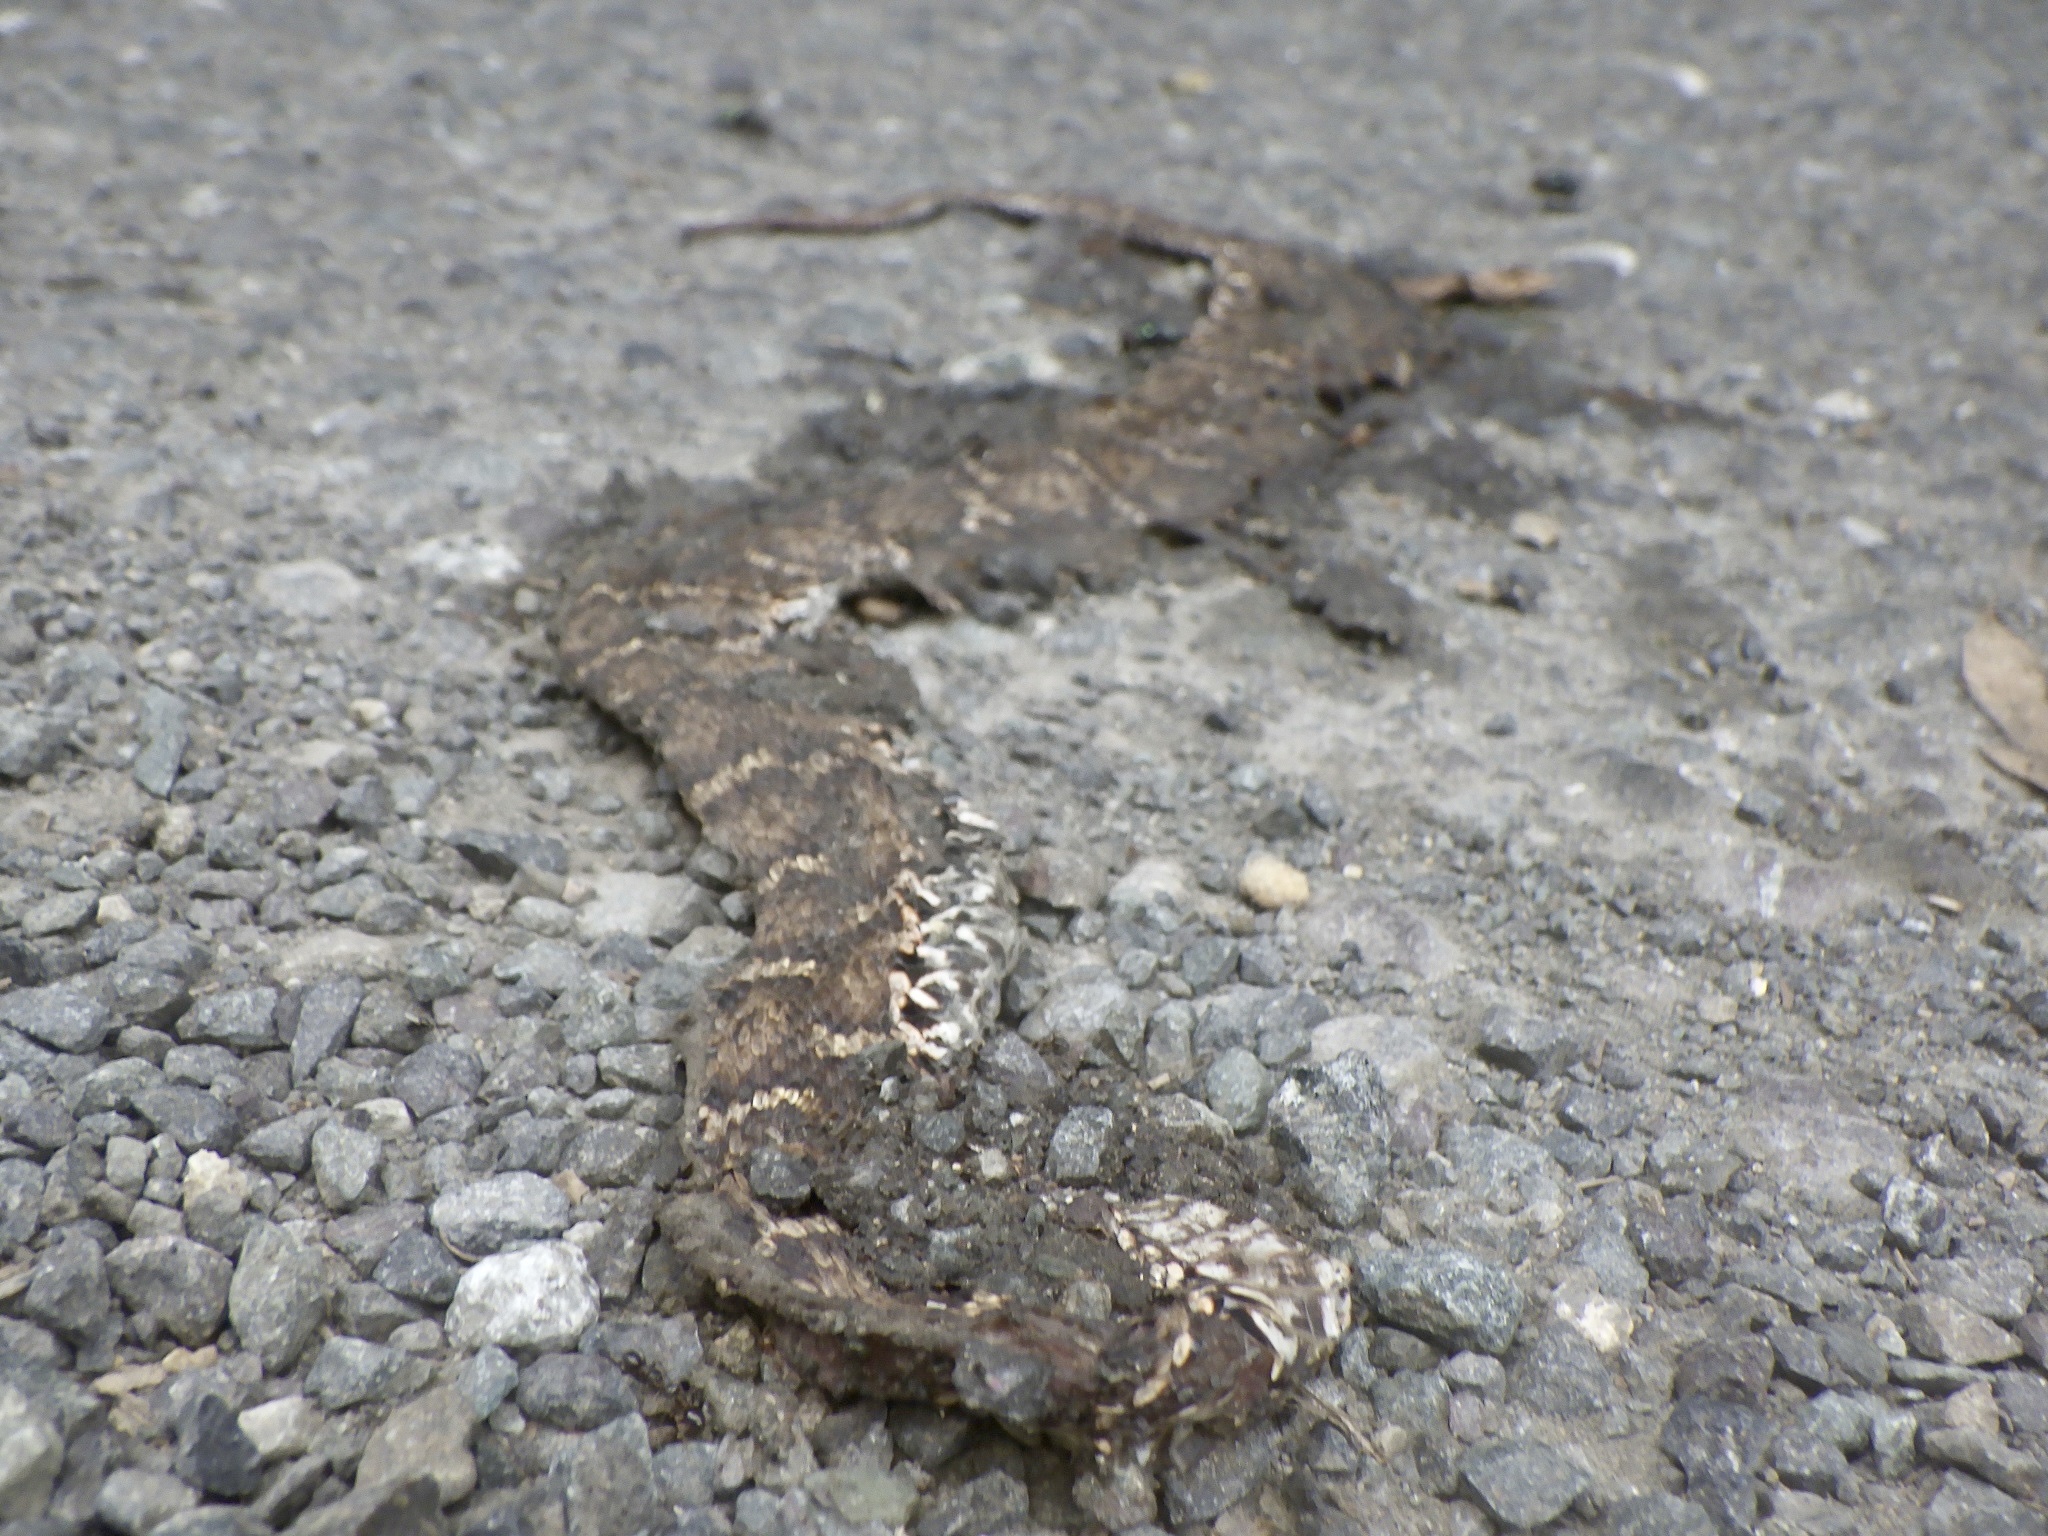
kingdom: Animalia
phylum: Chordata
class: Squamata
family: Viperidae
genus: Gloydius
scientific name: Gloydius blomhoffii
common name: Mamushi
